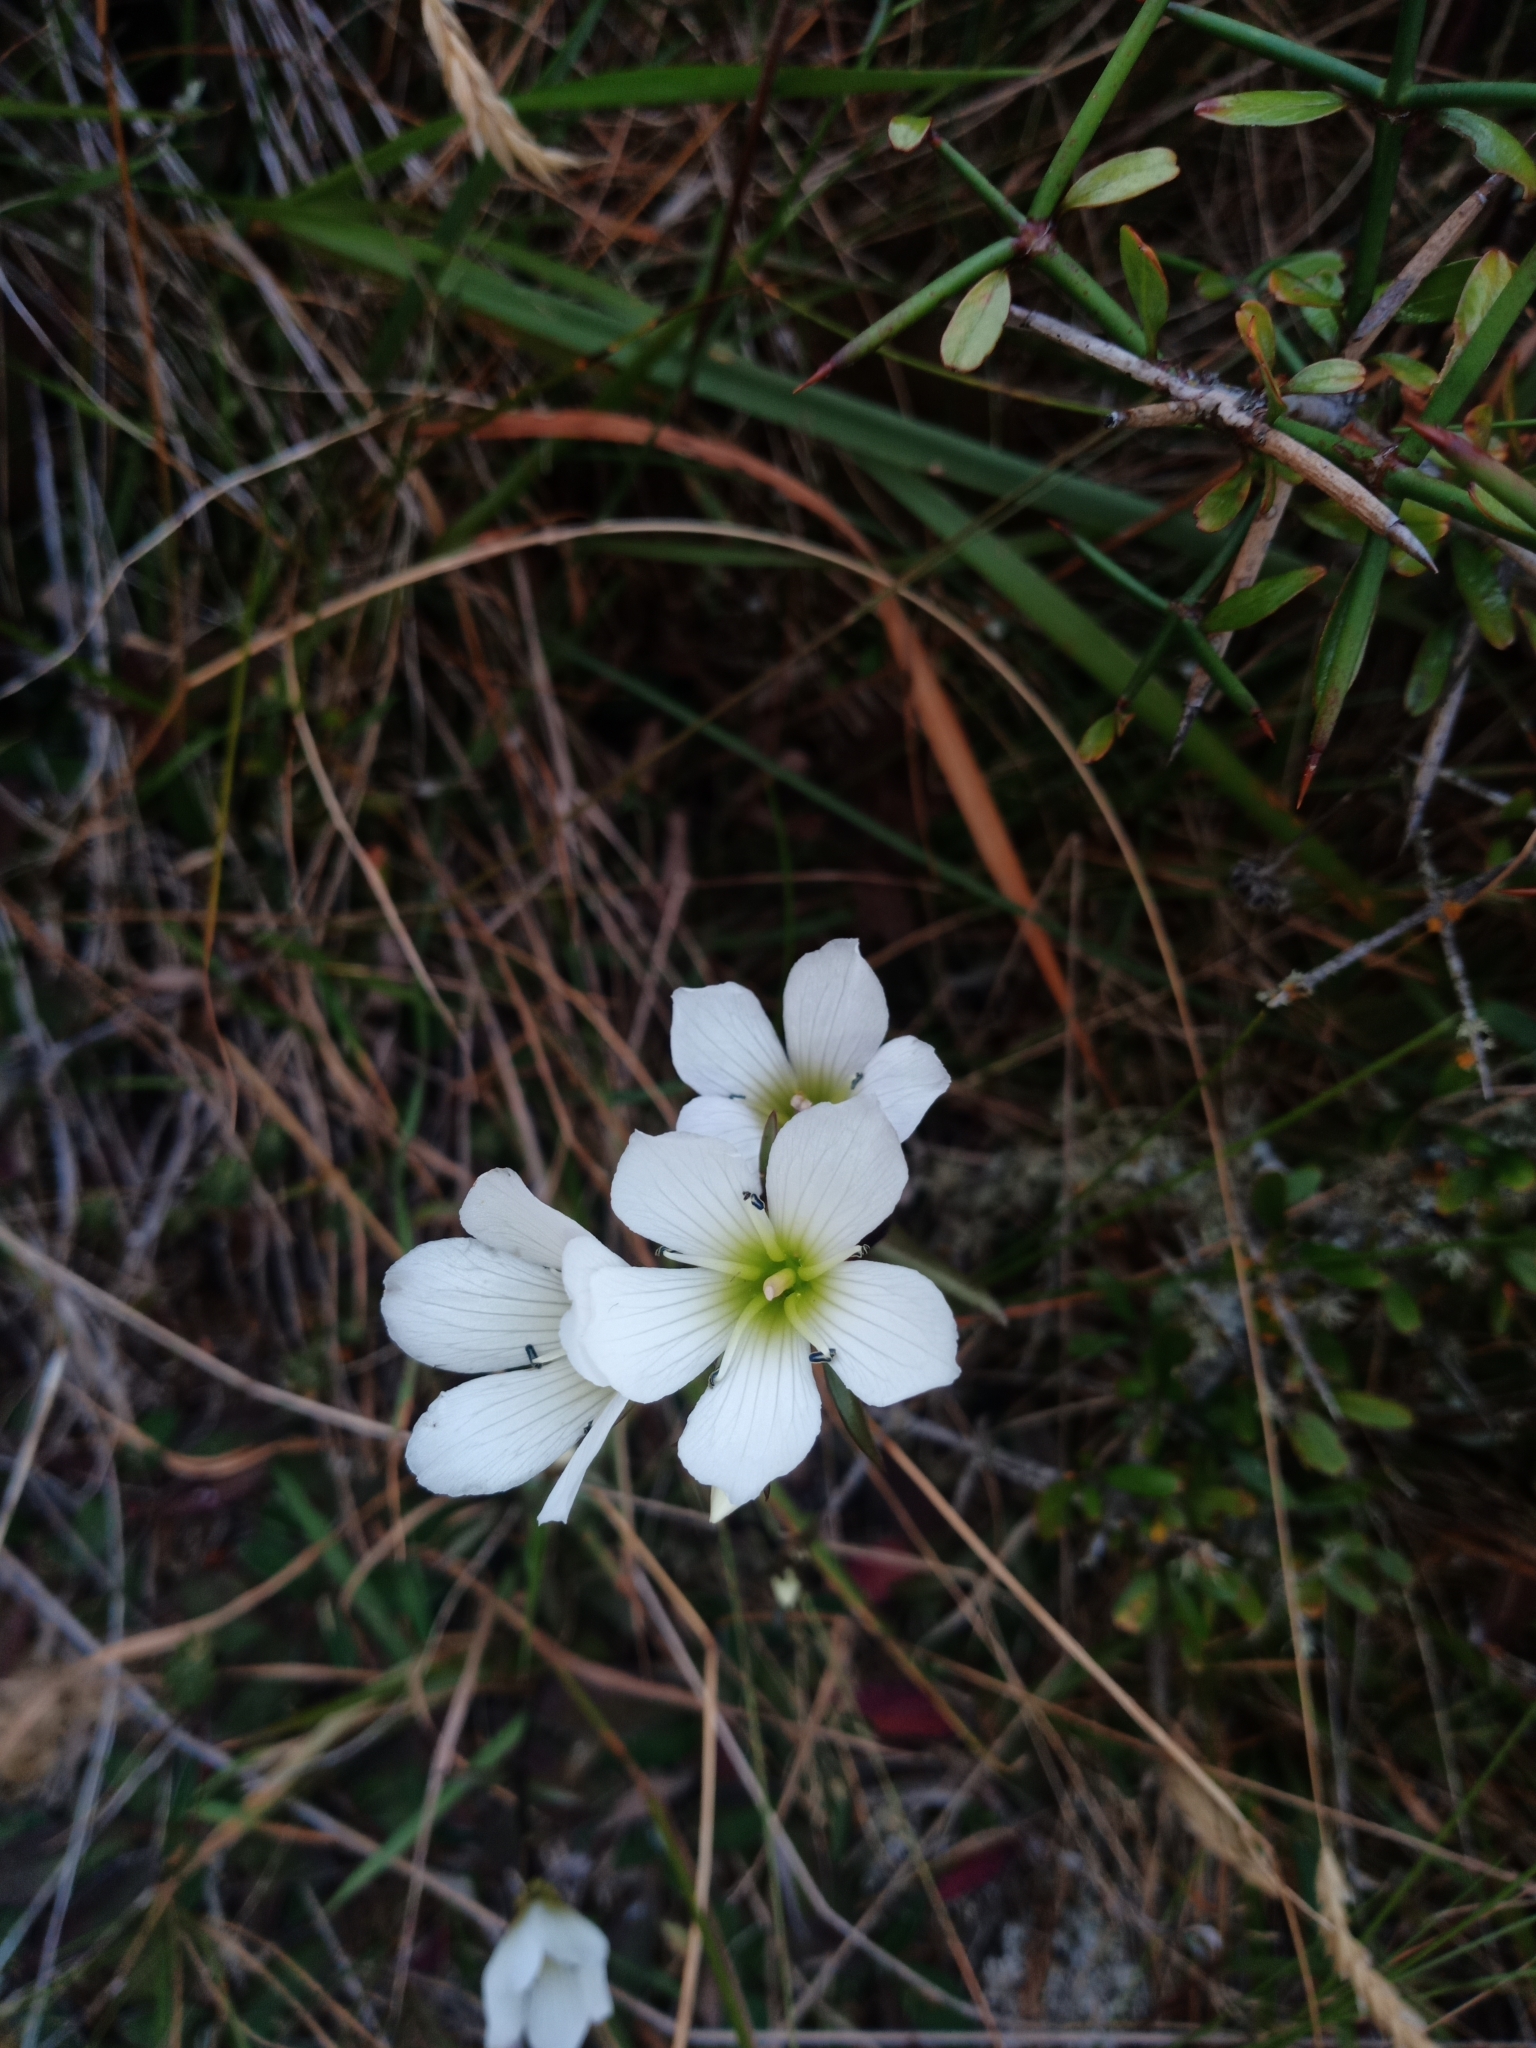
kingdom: Plantae
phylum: Tracheophyta
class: Magnoliopsida
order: Gentianales
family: Gentianaceae
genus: Gentianella
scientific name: Gentianella serotina
